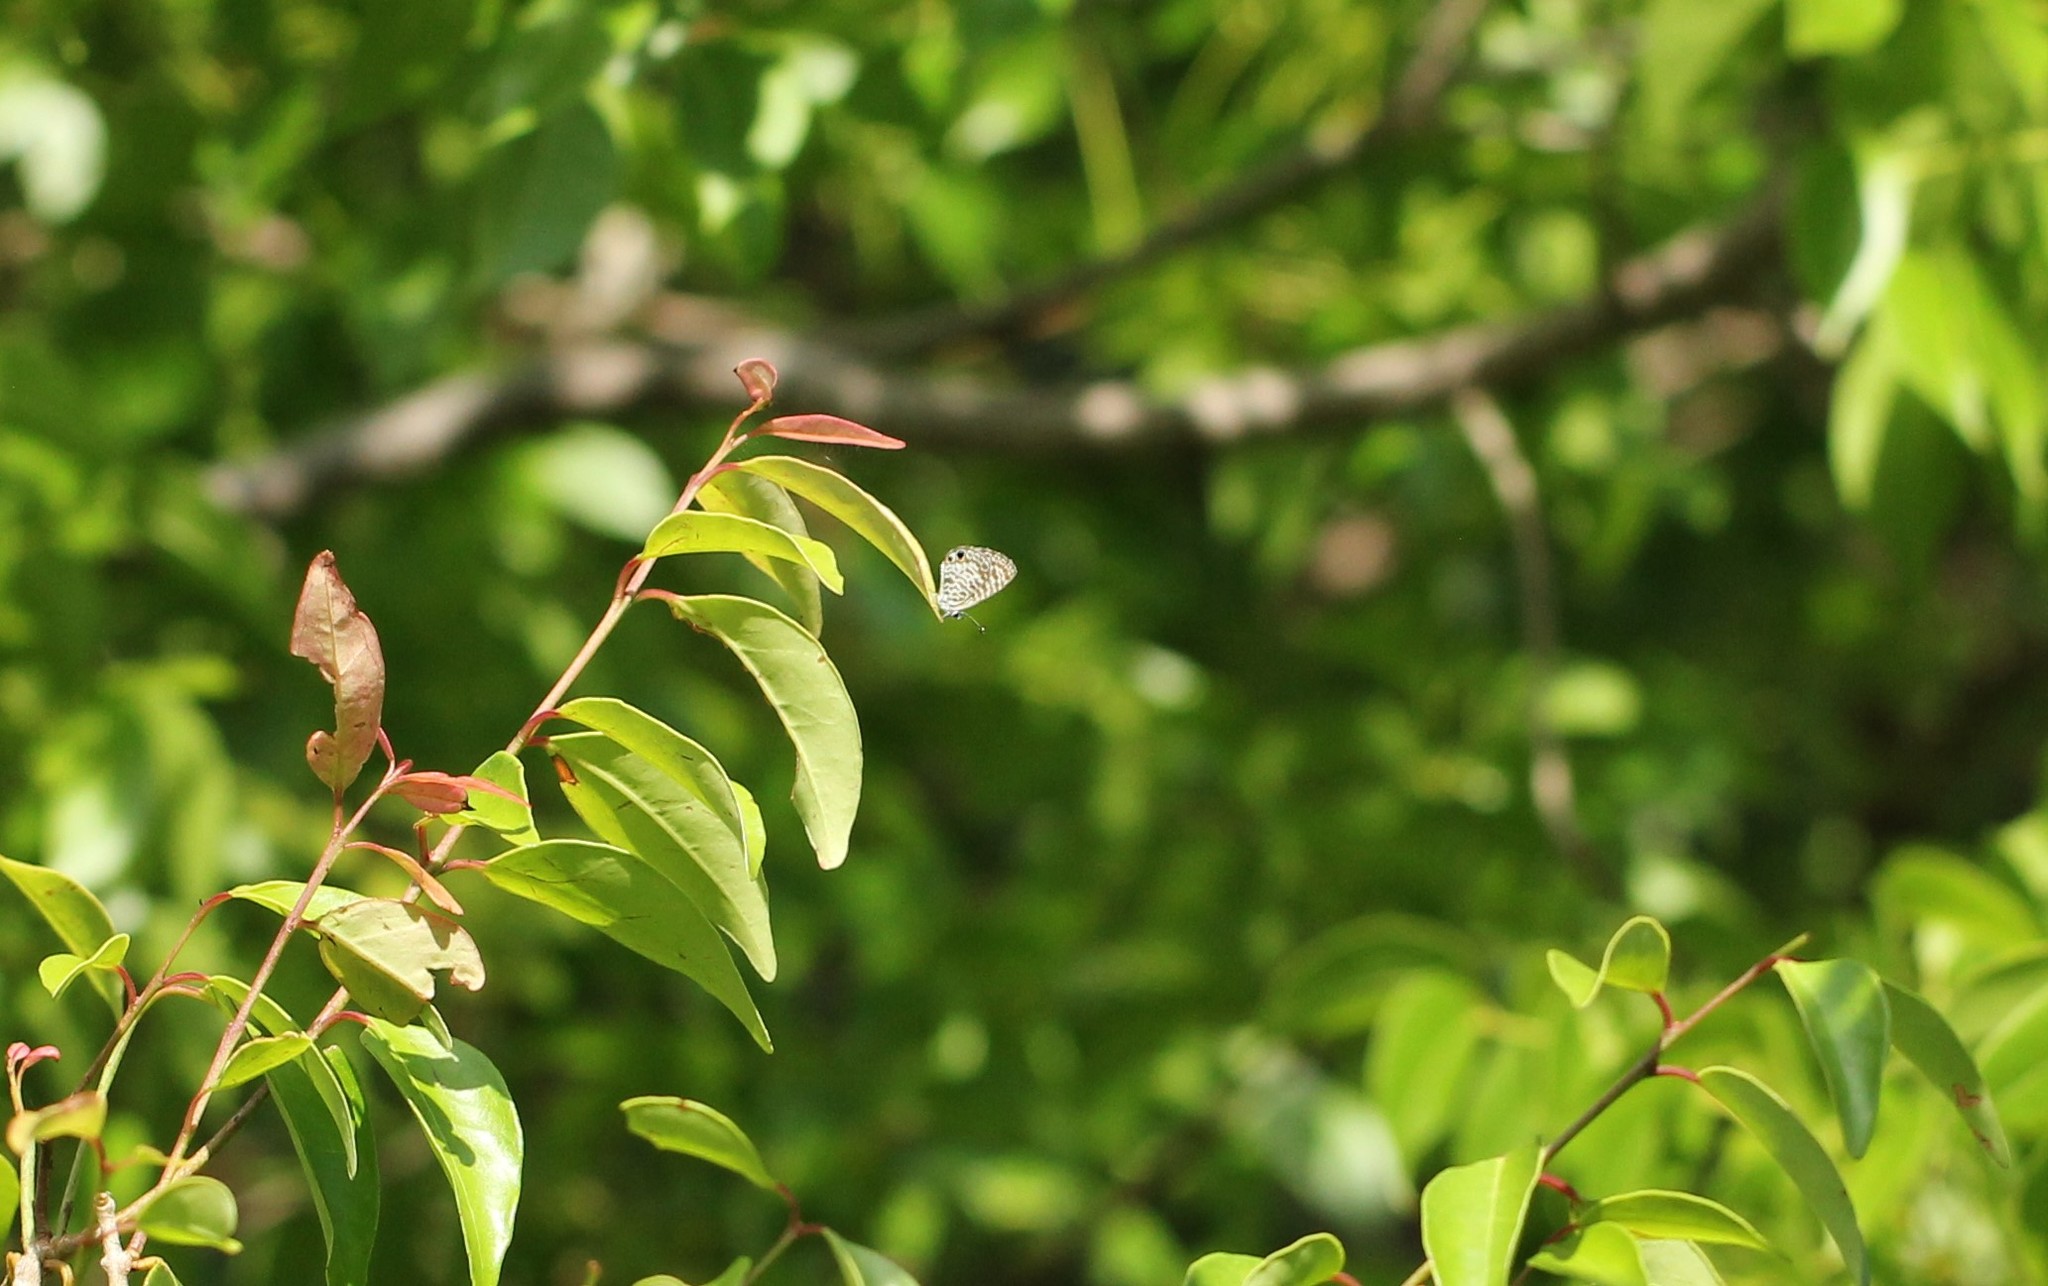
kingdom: Animalia
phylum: Arthropoda
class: Insecta
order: Lepidoptera
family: Lycaenidae
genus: Leptotes
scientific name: Leptotes cassius
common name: Cassius blue
